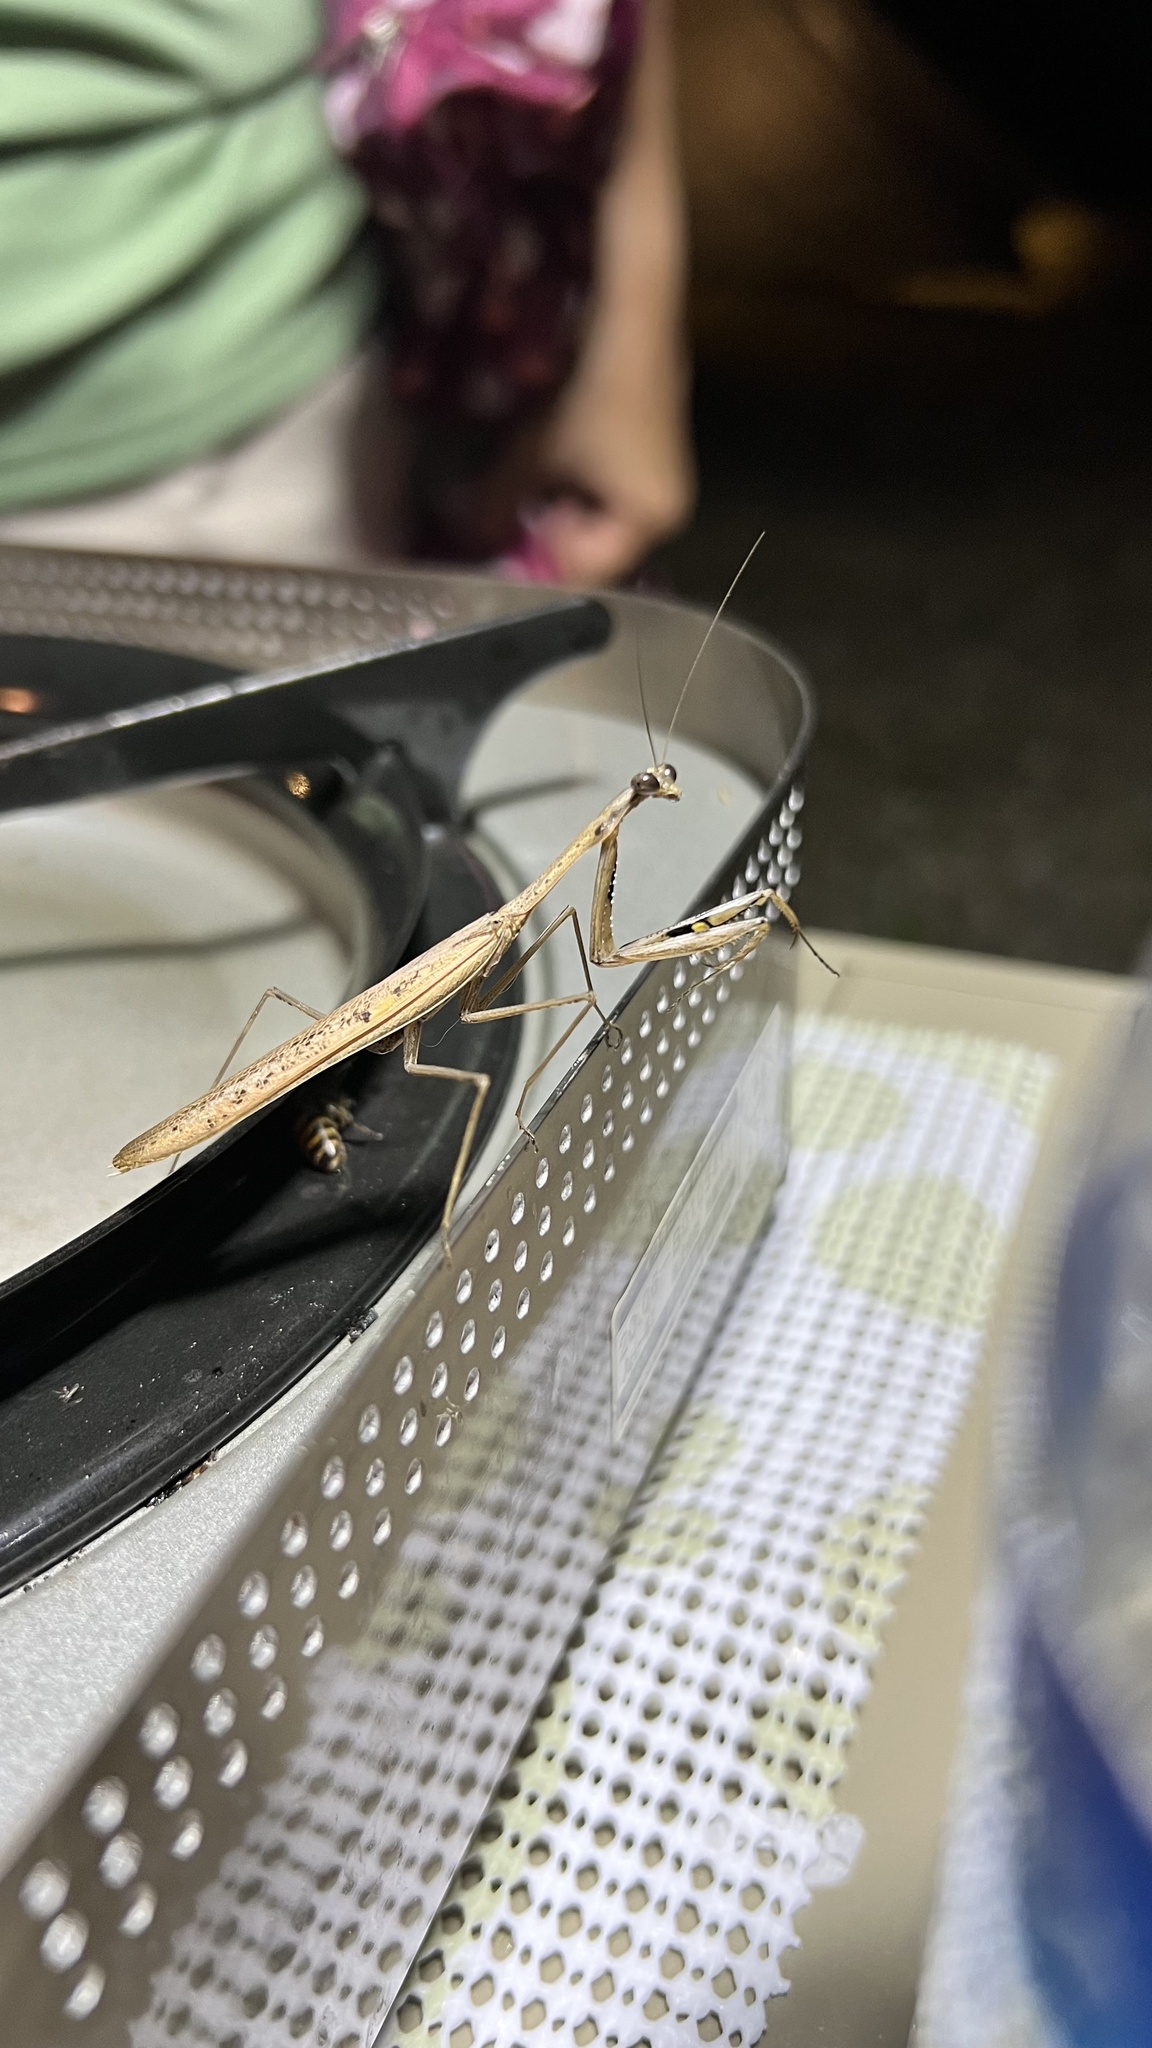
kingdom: Animalia
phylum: Arthropoda
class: Insecta
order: Mantodea
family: Mantidae
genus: Statilia
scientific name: Statilia nemoralis
